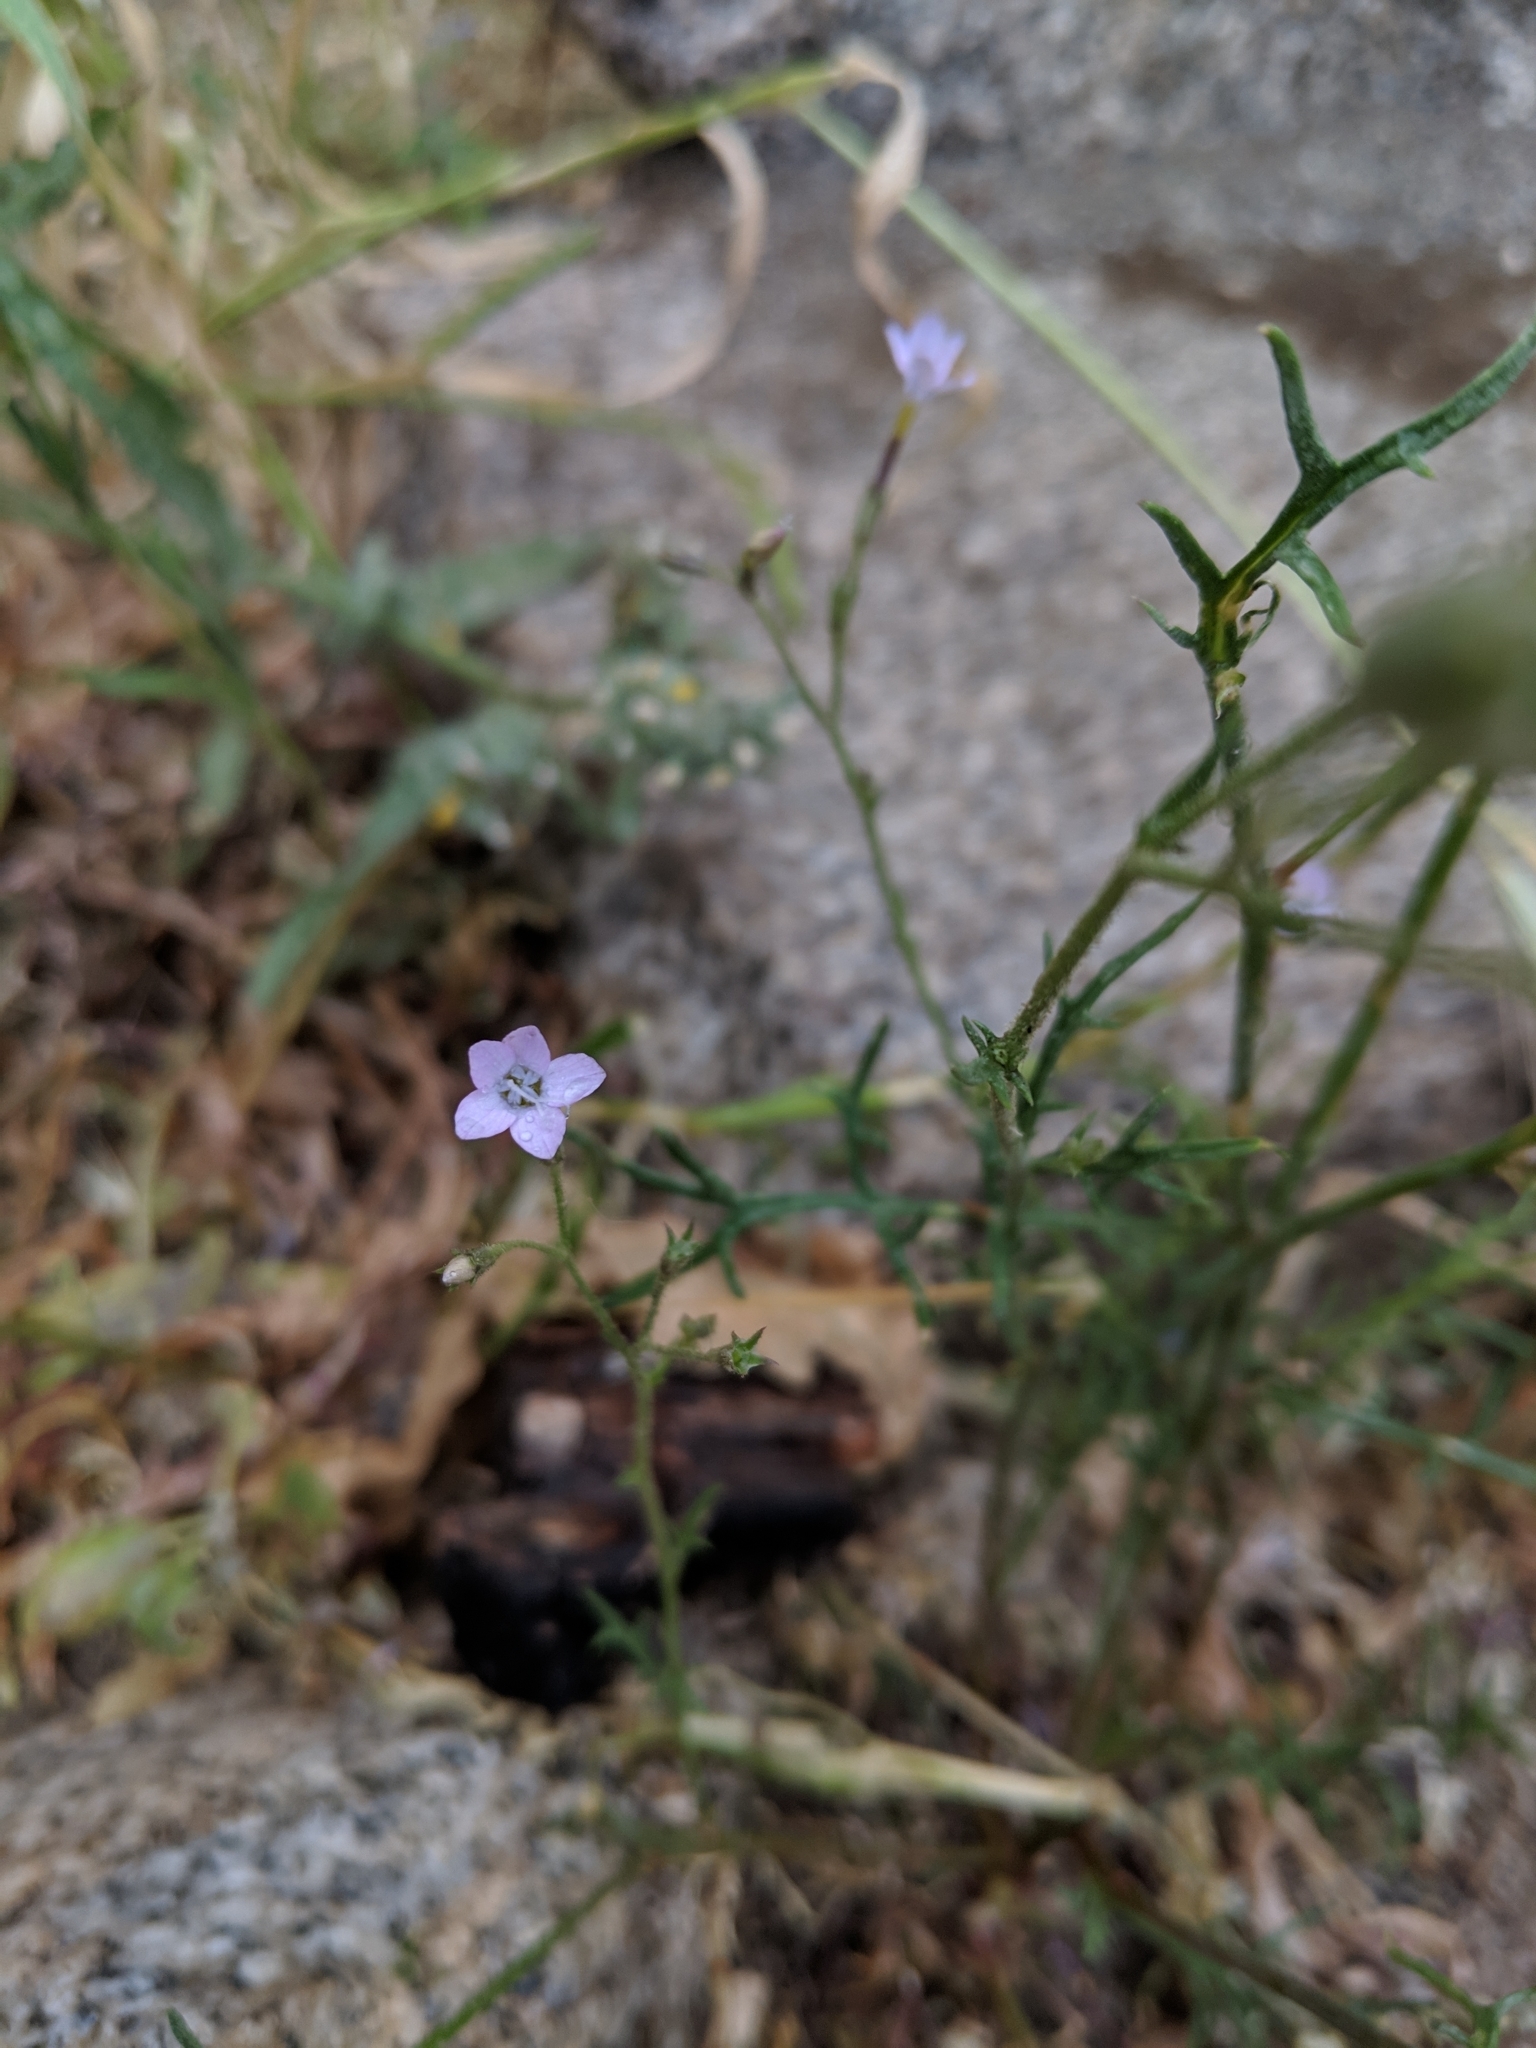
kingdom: Plantae
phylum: Tracheophyta
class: Magnoliopsida
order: Ericales
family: Polemoniaceae
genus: Gilia
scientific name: Gilia flavocincta
